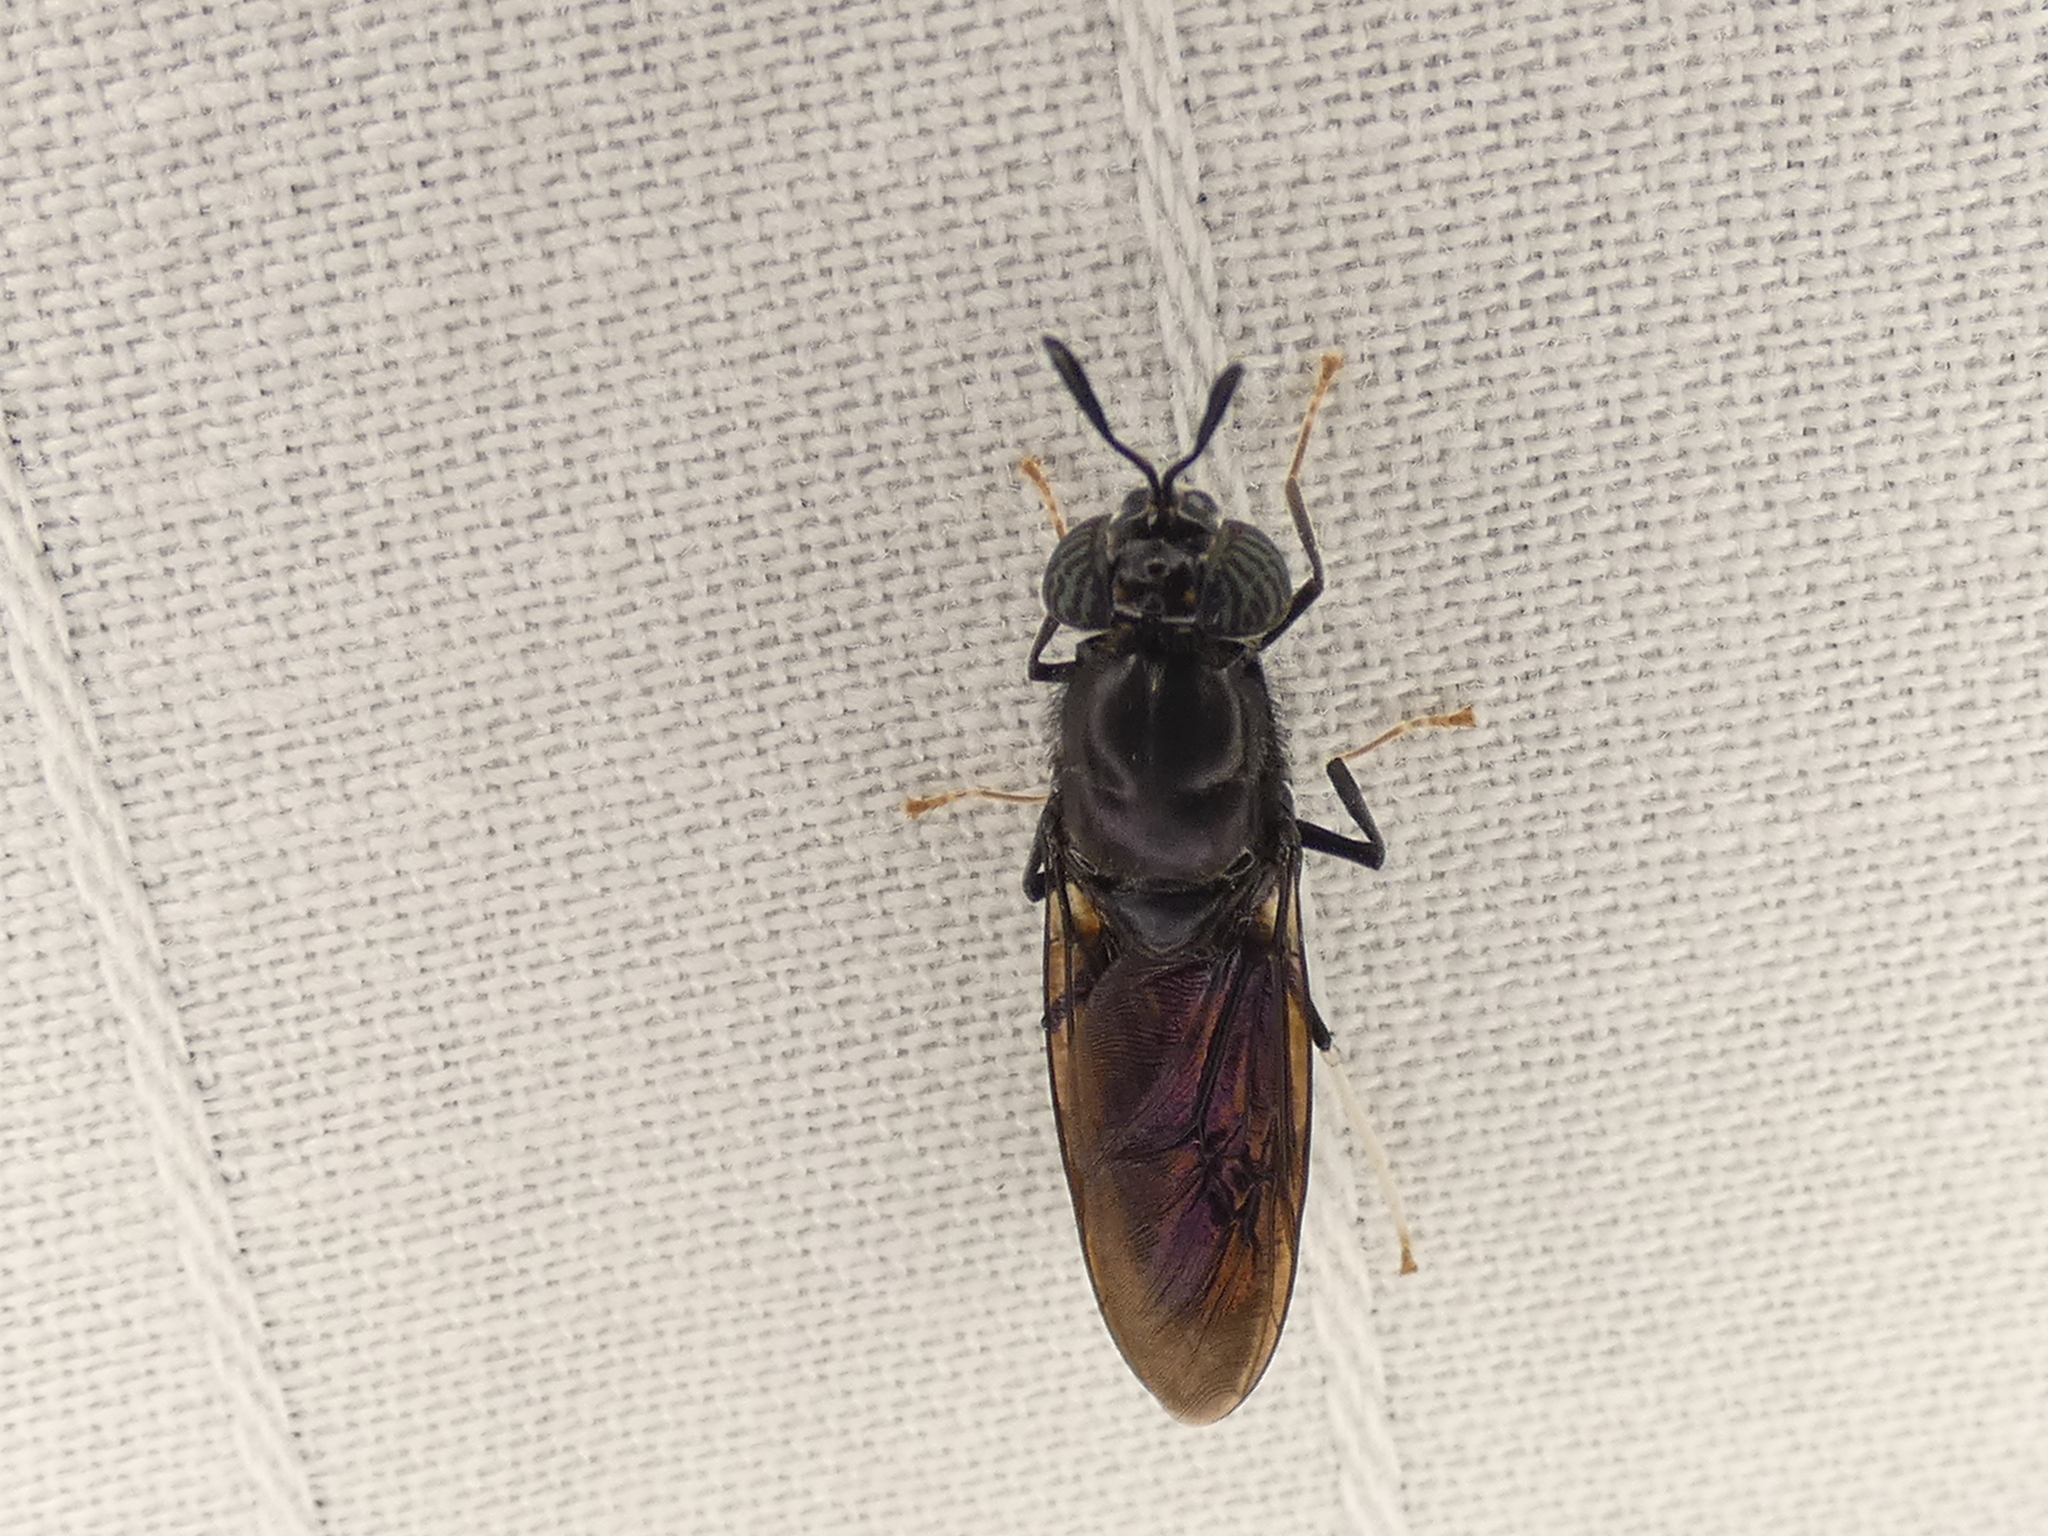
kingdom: Animalia
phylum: Arthropoda
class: Insecta
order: Diptera
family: Stratiomyidae
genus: Hermetia
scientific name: Hermetia illucens
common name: Black soldier fly
